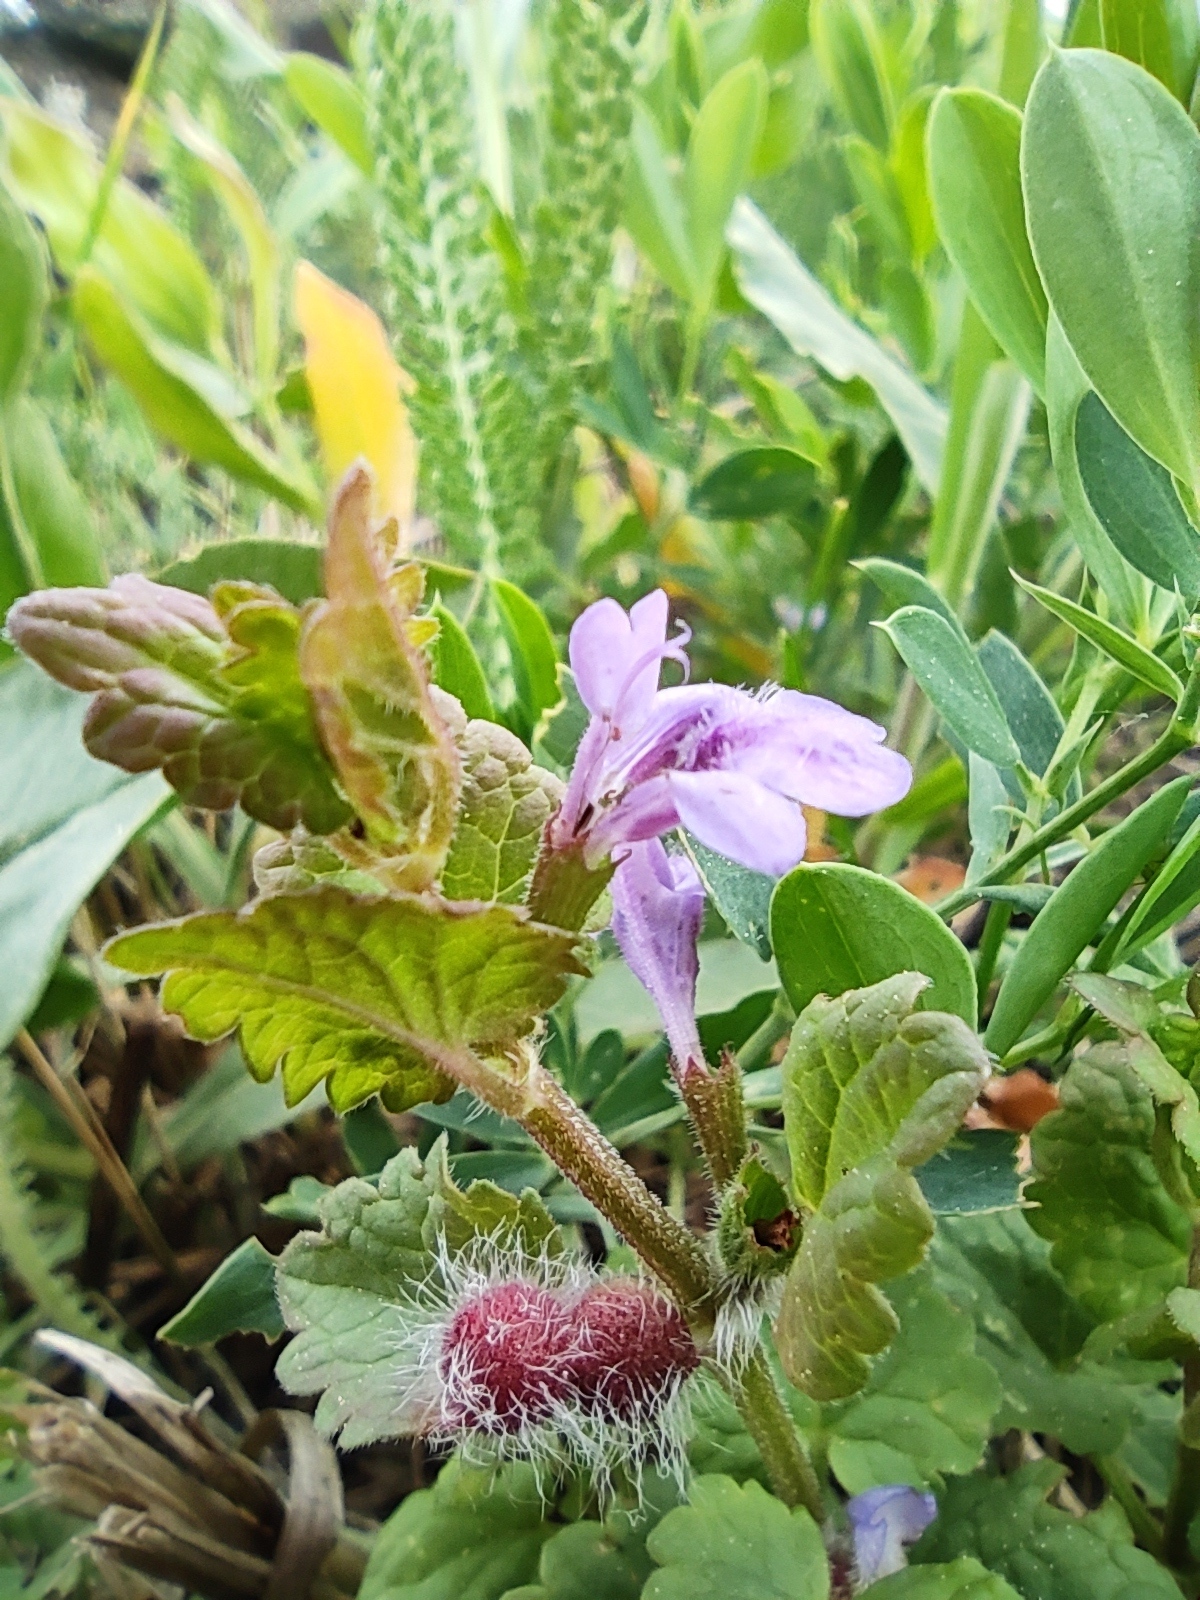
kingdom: Plantae
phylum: Tracheophyta
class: Magnoliopsida
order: Lamiales
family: Lamiaceae
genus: Glechoma
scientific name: Glechoma hederacea
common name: Ground ivy
